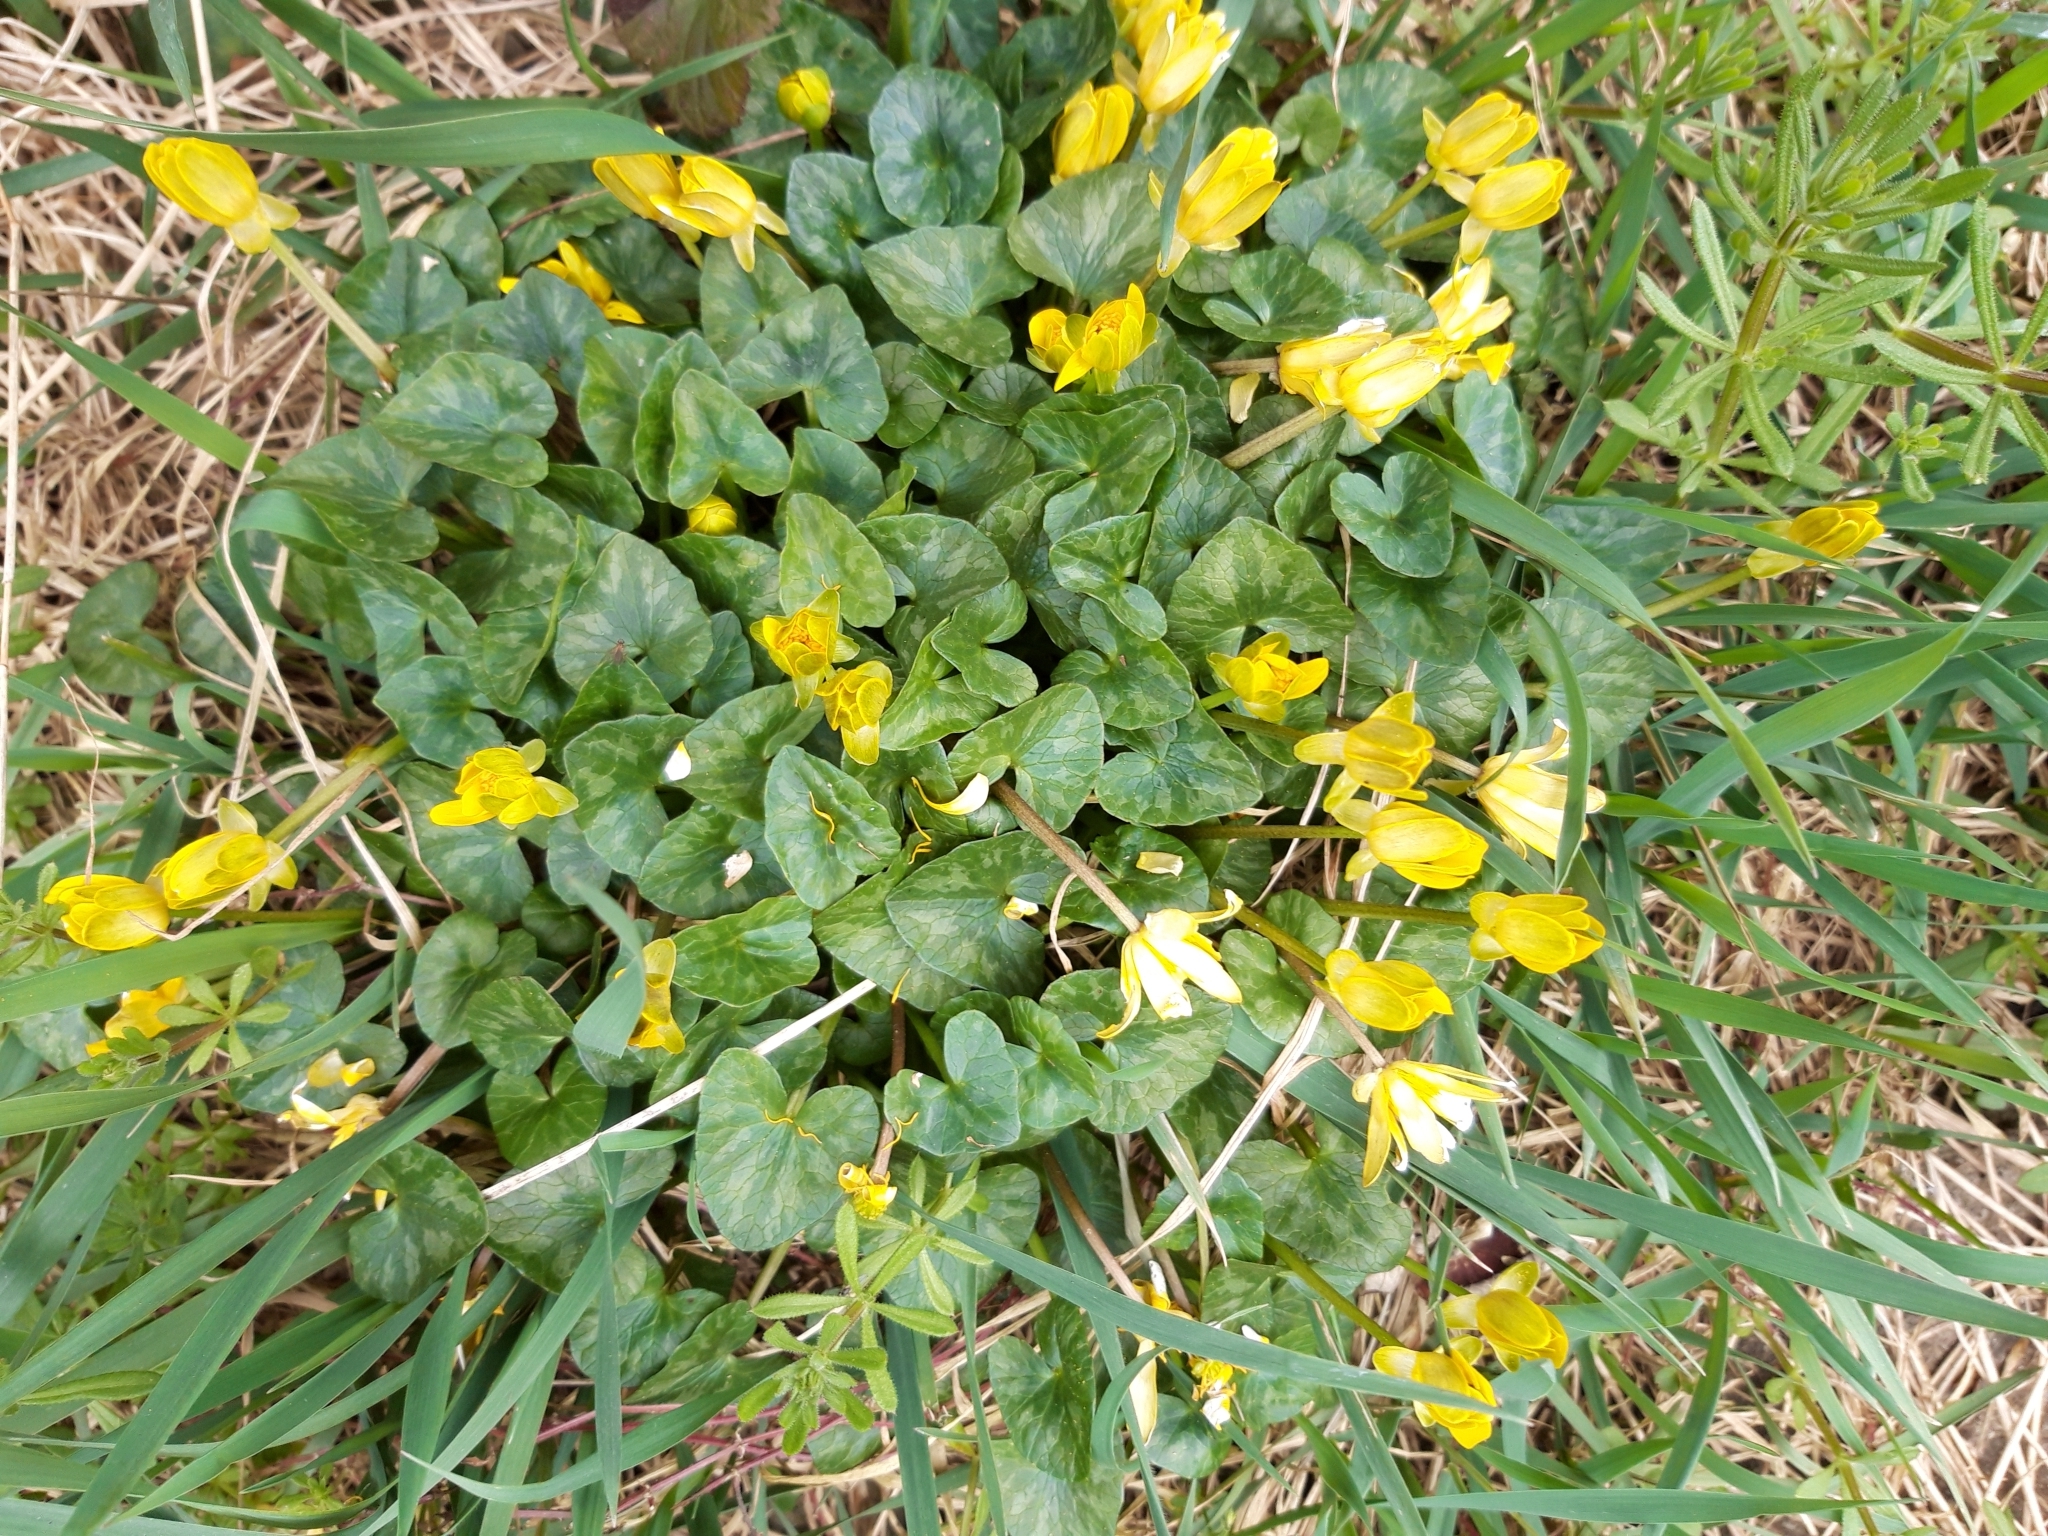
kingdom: Plantae
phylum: Tracheophyta
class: Magnoliopsida
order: Ranunculales
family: Ranunculaceae
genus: Ficaria
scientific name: Ficaria verna
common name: Lesser celandine
